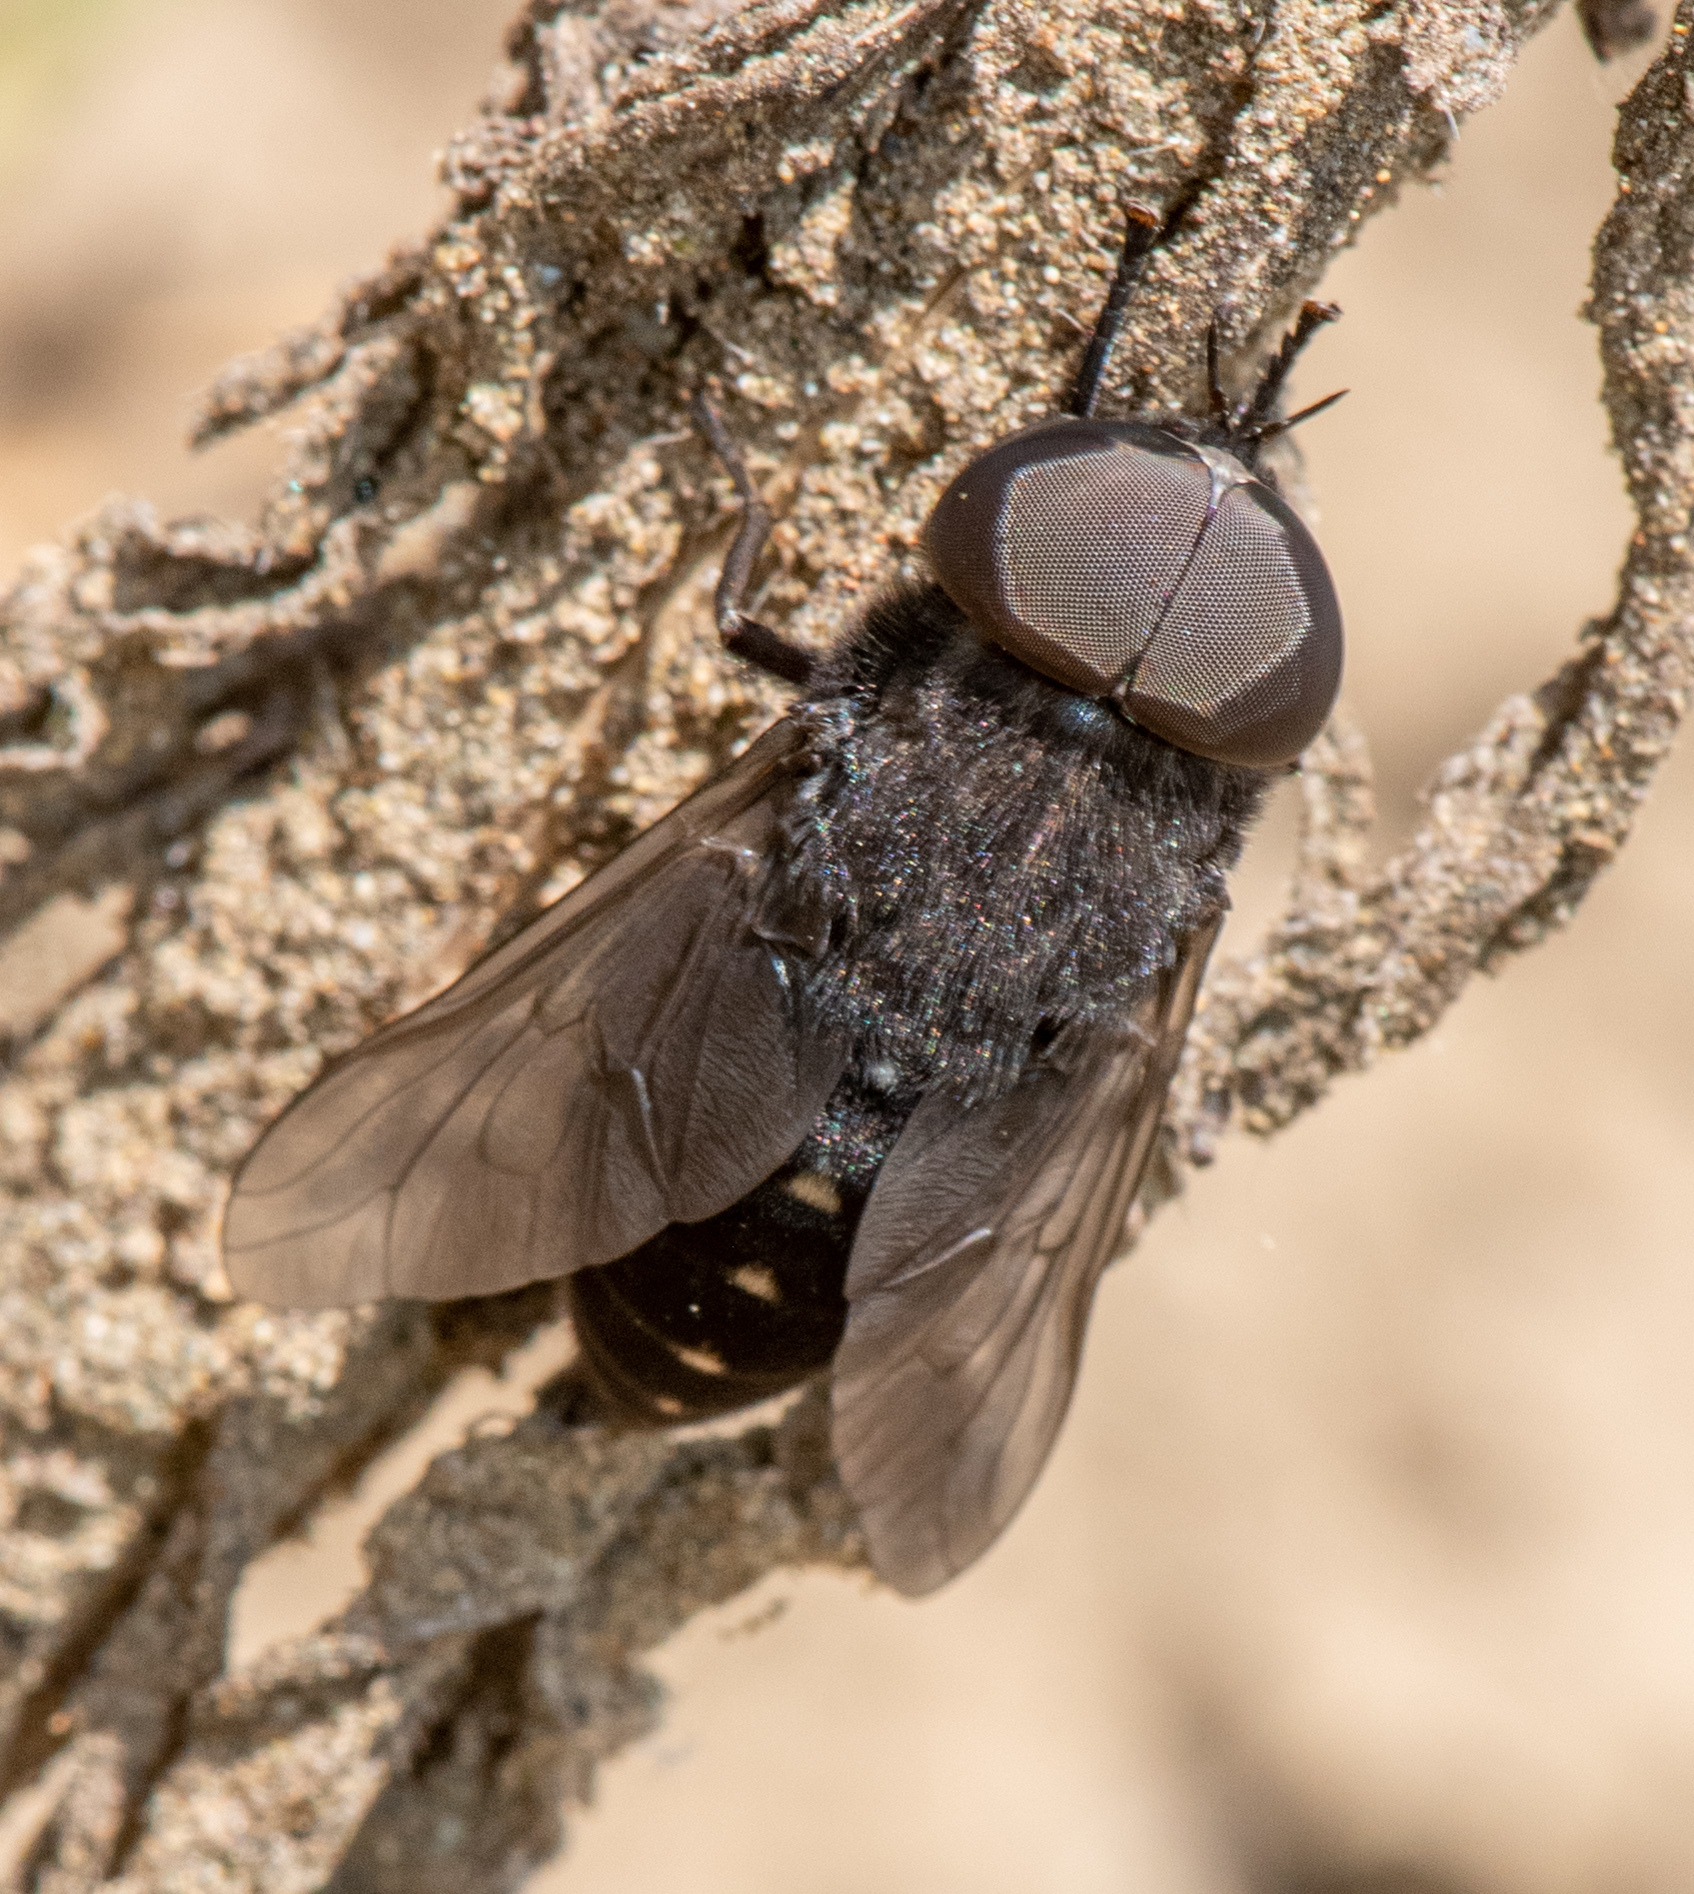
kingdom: Animalia
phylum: Arthropoda
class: Insecta
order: Diptera
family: Tabanidae
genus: Tabanus
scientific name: Tabanus kesseli
